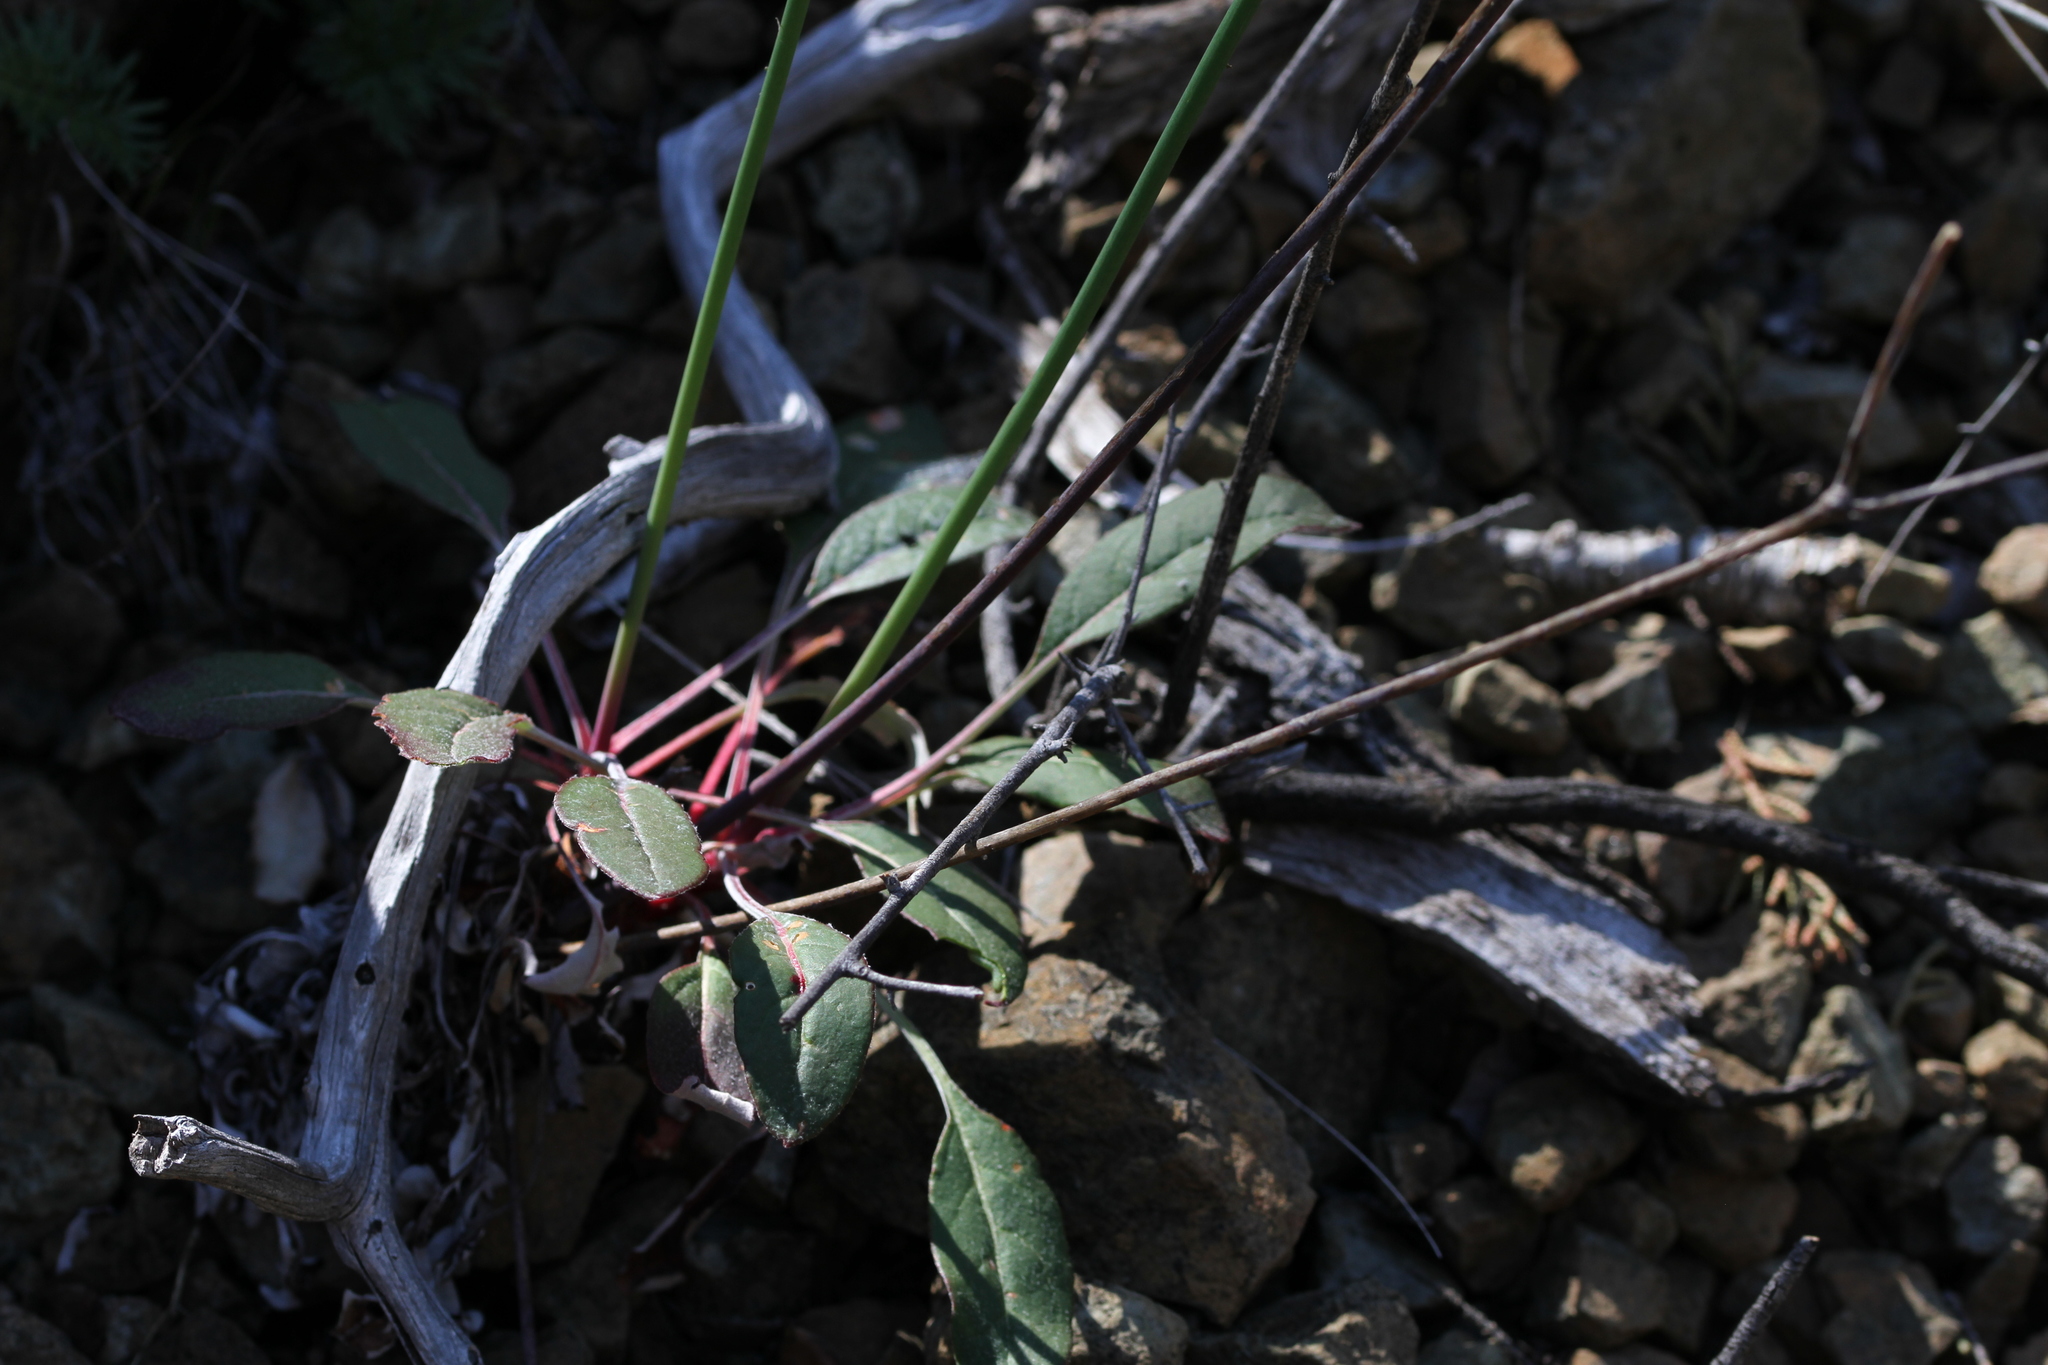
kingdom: Plantae
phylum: Tracheophyta
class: Magnoliopsida
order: Caryophyllales
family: Polygonaceae
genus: Eriogonum
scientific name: Eriogonum nudum
